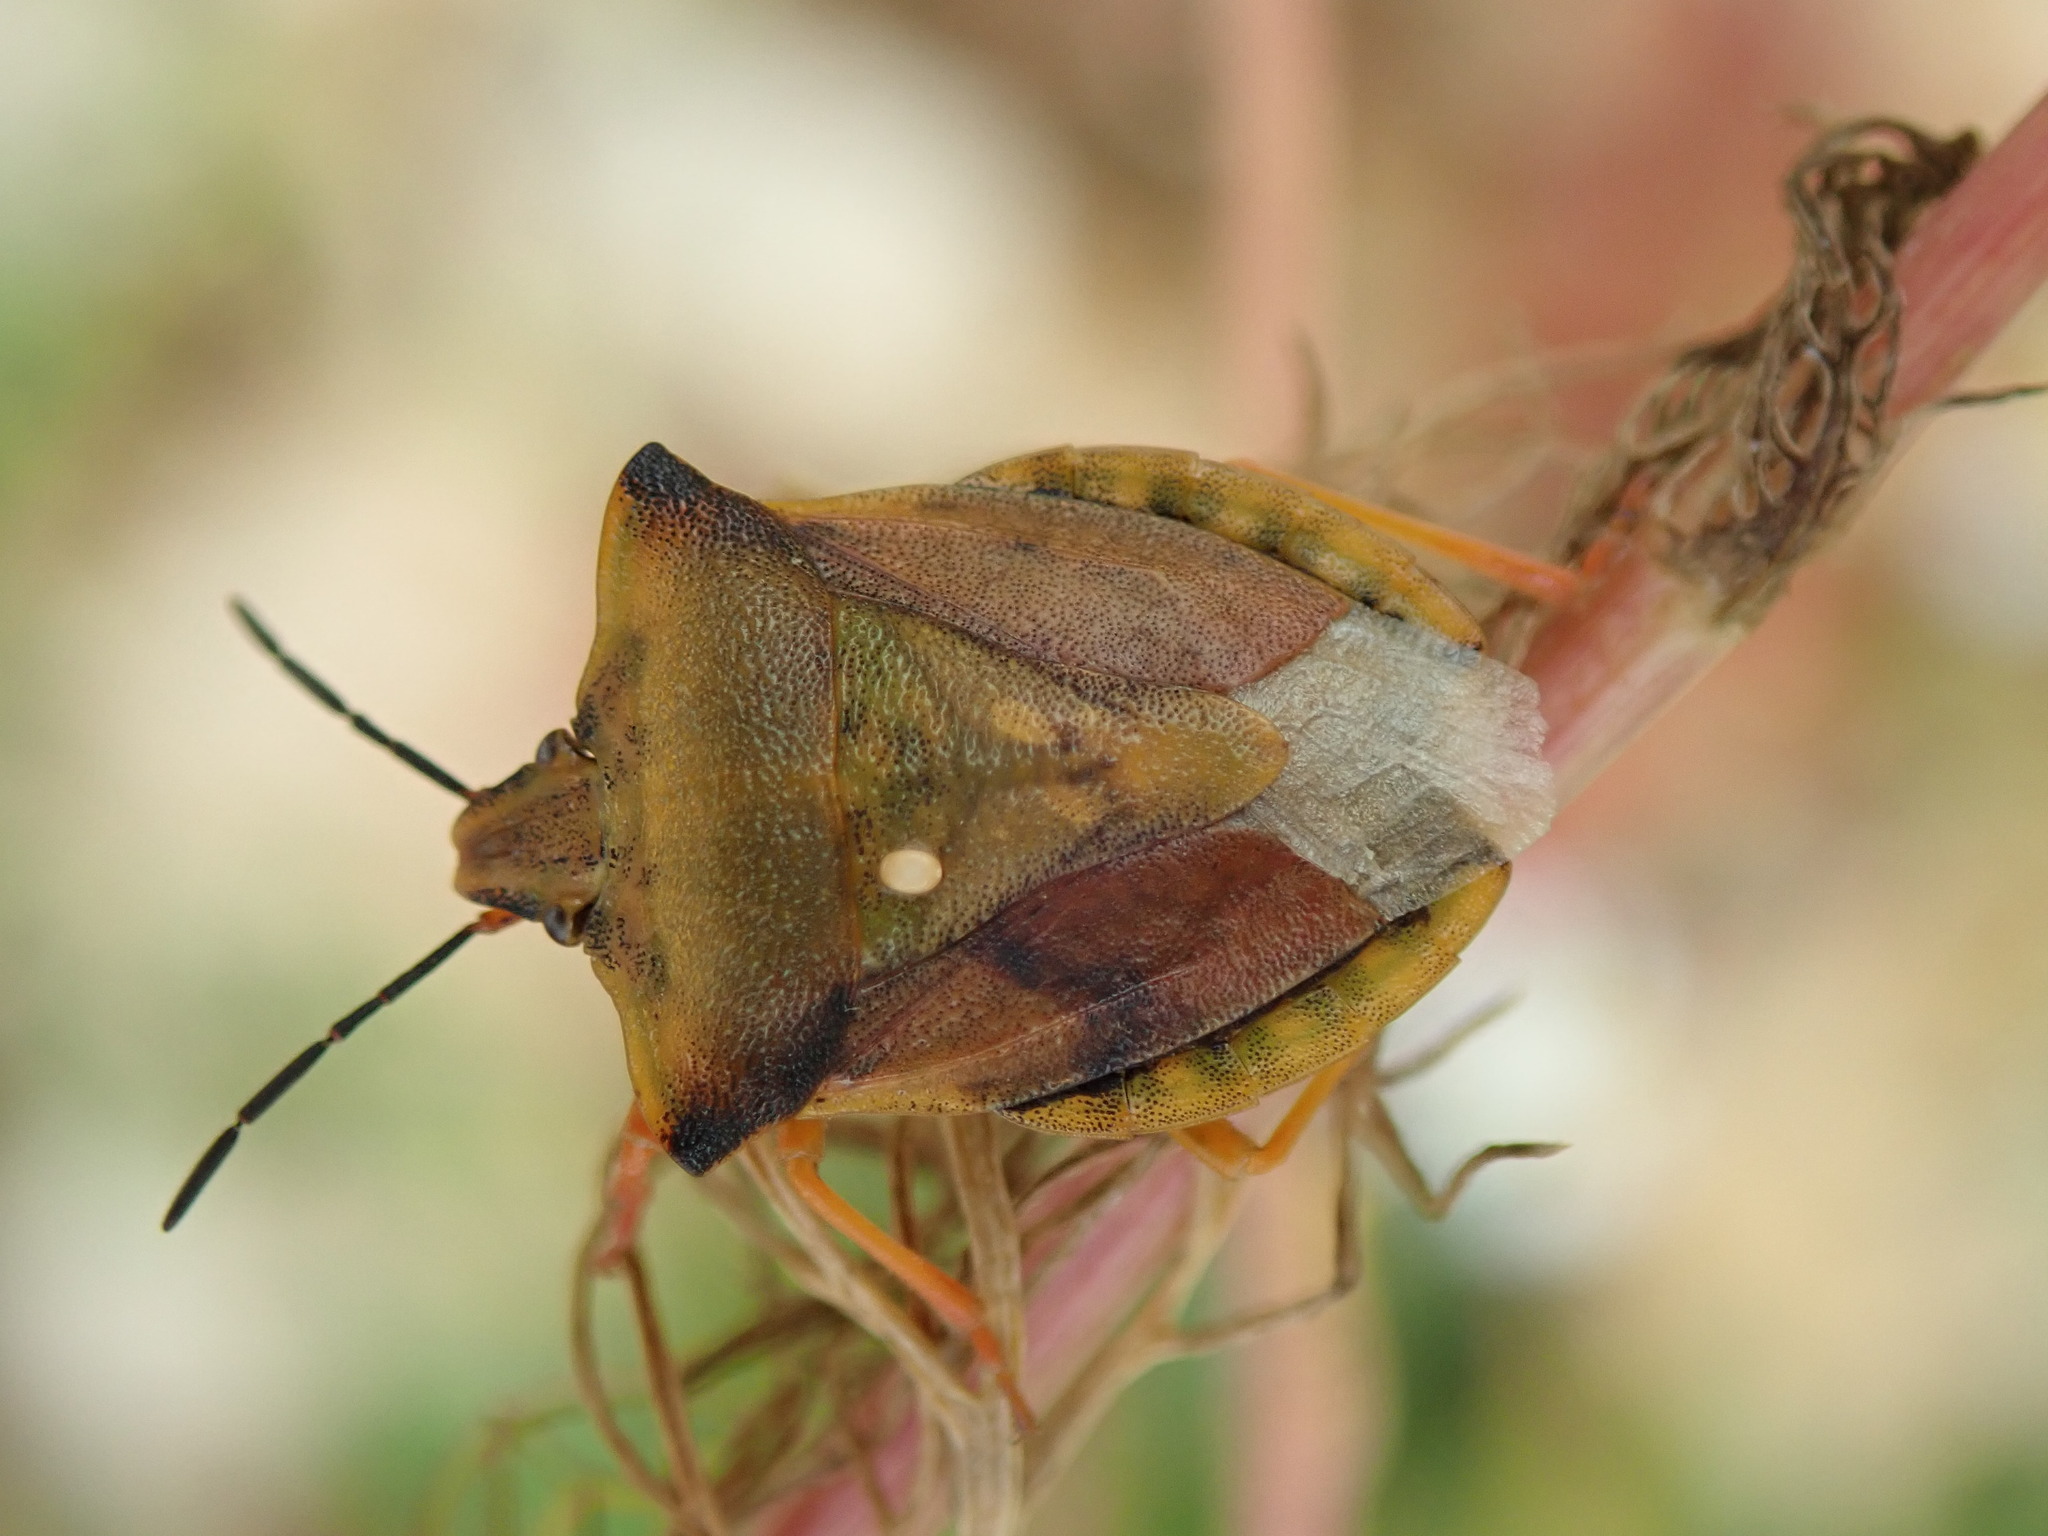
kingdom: Animalia
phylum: Arthropoda
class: Insecta
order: Hemiptera
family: Pentatomidae
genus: Carpocoris
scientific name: Carpocoris fuscispinus
